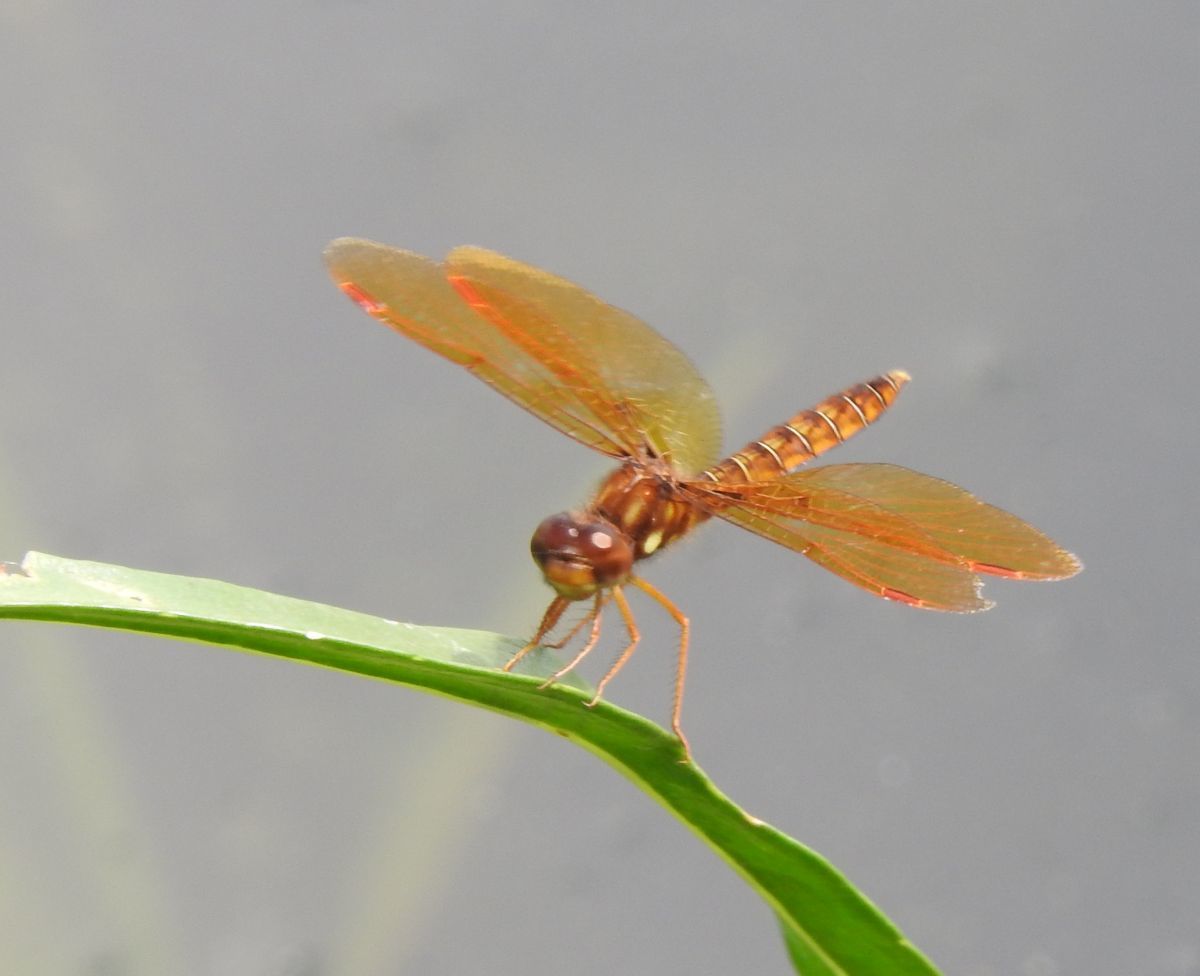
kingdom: Animalia
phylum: Arthropoda
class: Insecta
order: Odonata
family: Libellulidae
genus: Perithemis
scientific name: Perithemis tenera
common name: Eastern amberwing
